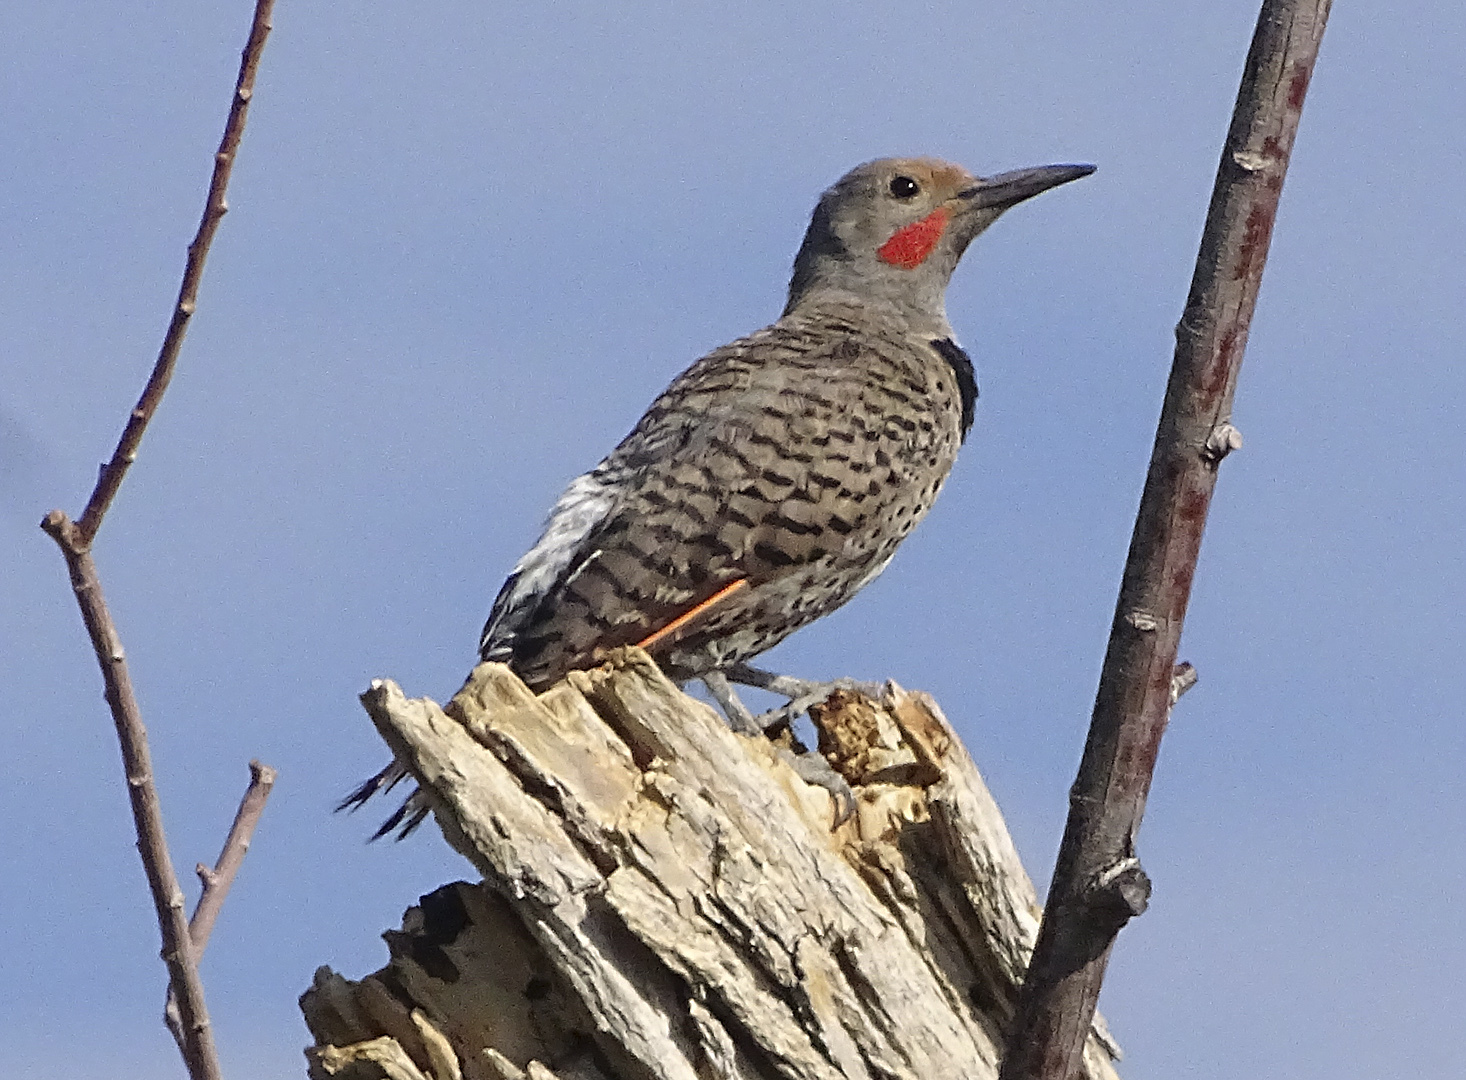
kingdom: Animalia
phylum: Chordata
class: Aves
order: Piciformes
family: Picidae
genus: Colaptes
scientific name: Colaptes auratus
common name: Northern flicker
